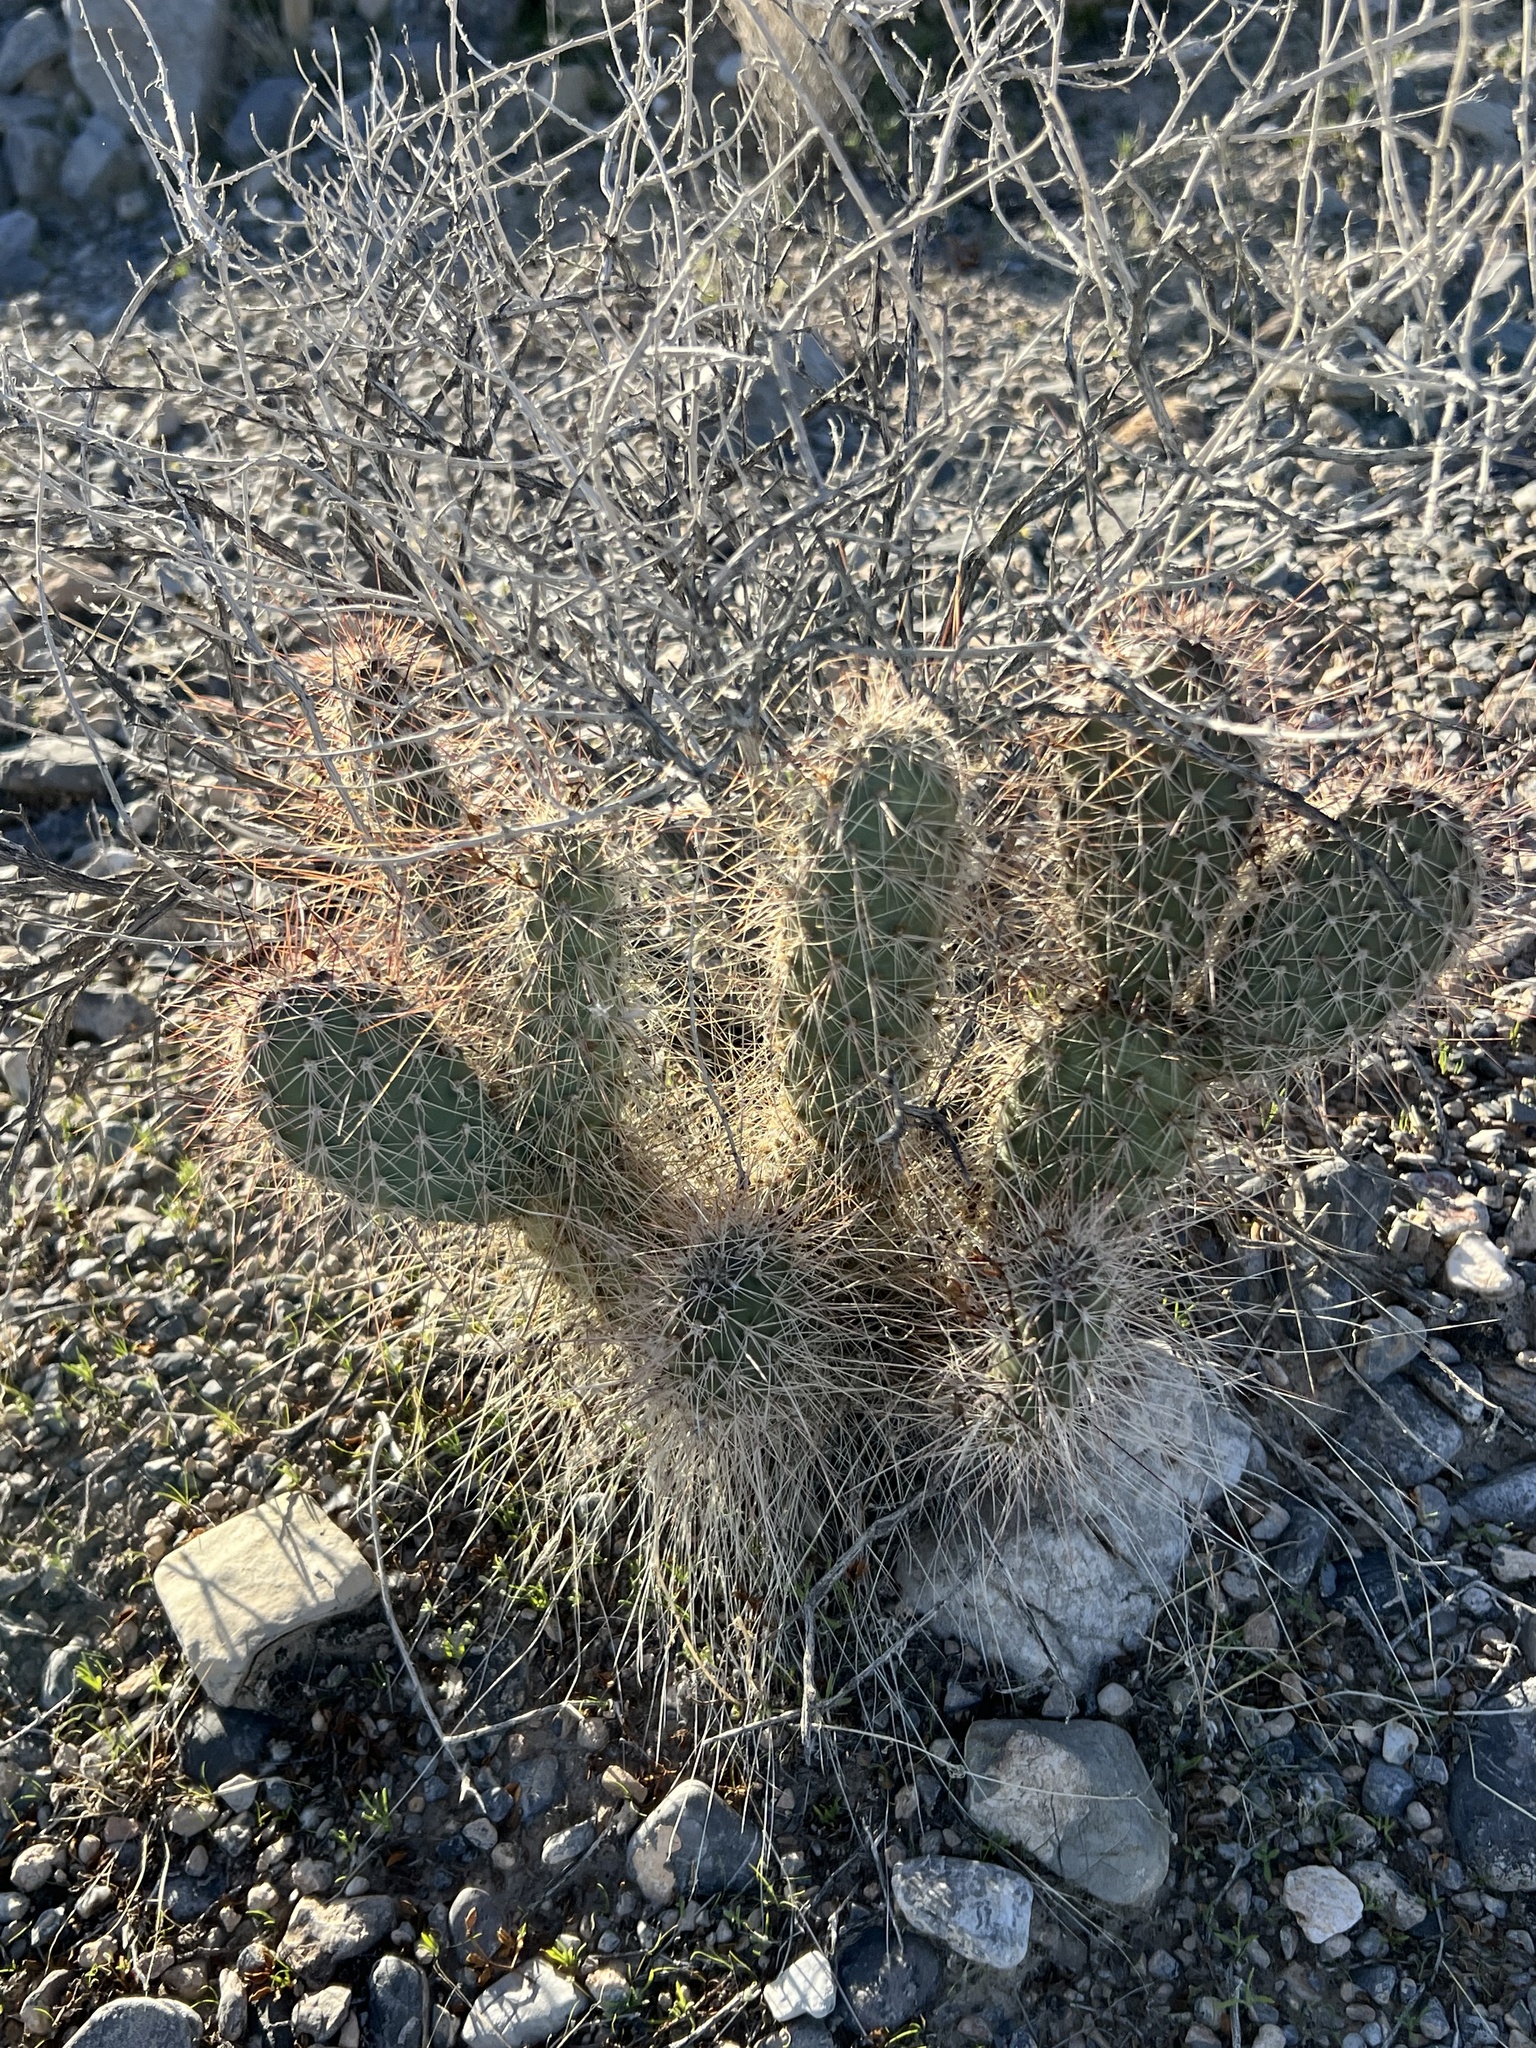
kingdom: Plantae
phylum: Tracheophyta
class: Magnoliopsida
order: Caryophyllales
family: Cactaceae
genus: Opuntia
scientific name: Opuntia polyacantha
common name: Plains prickly-pear
